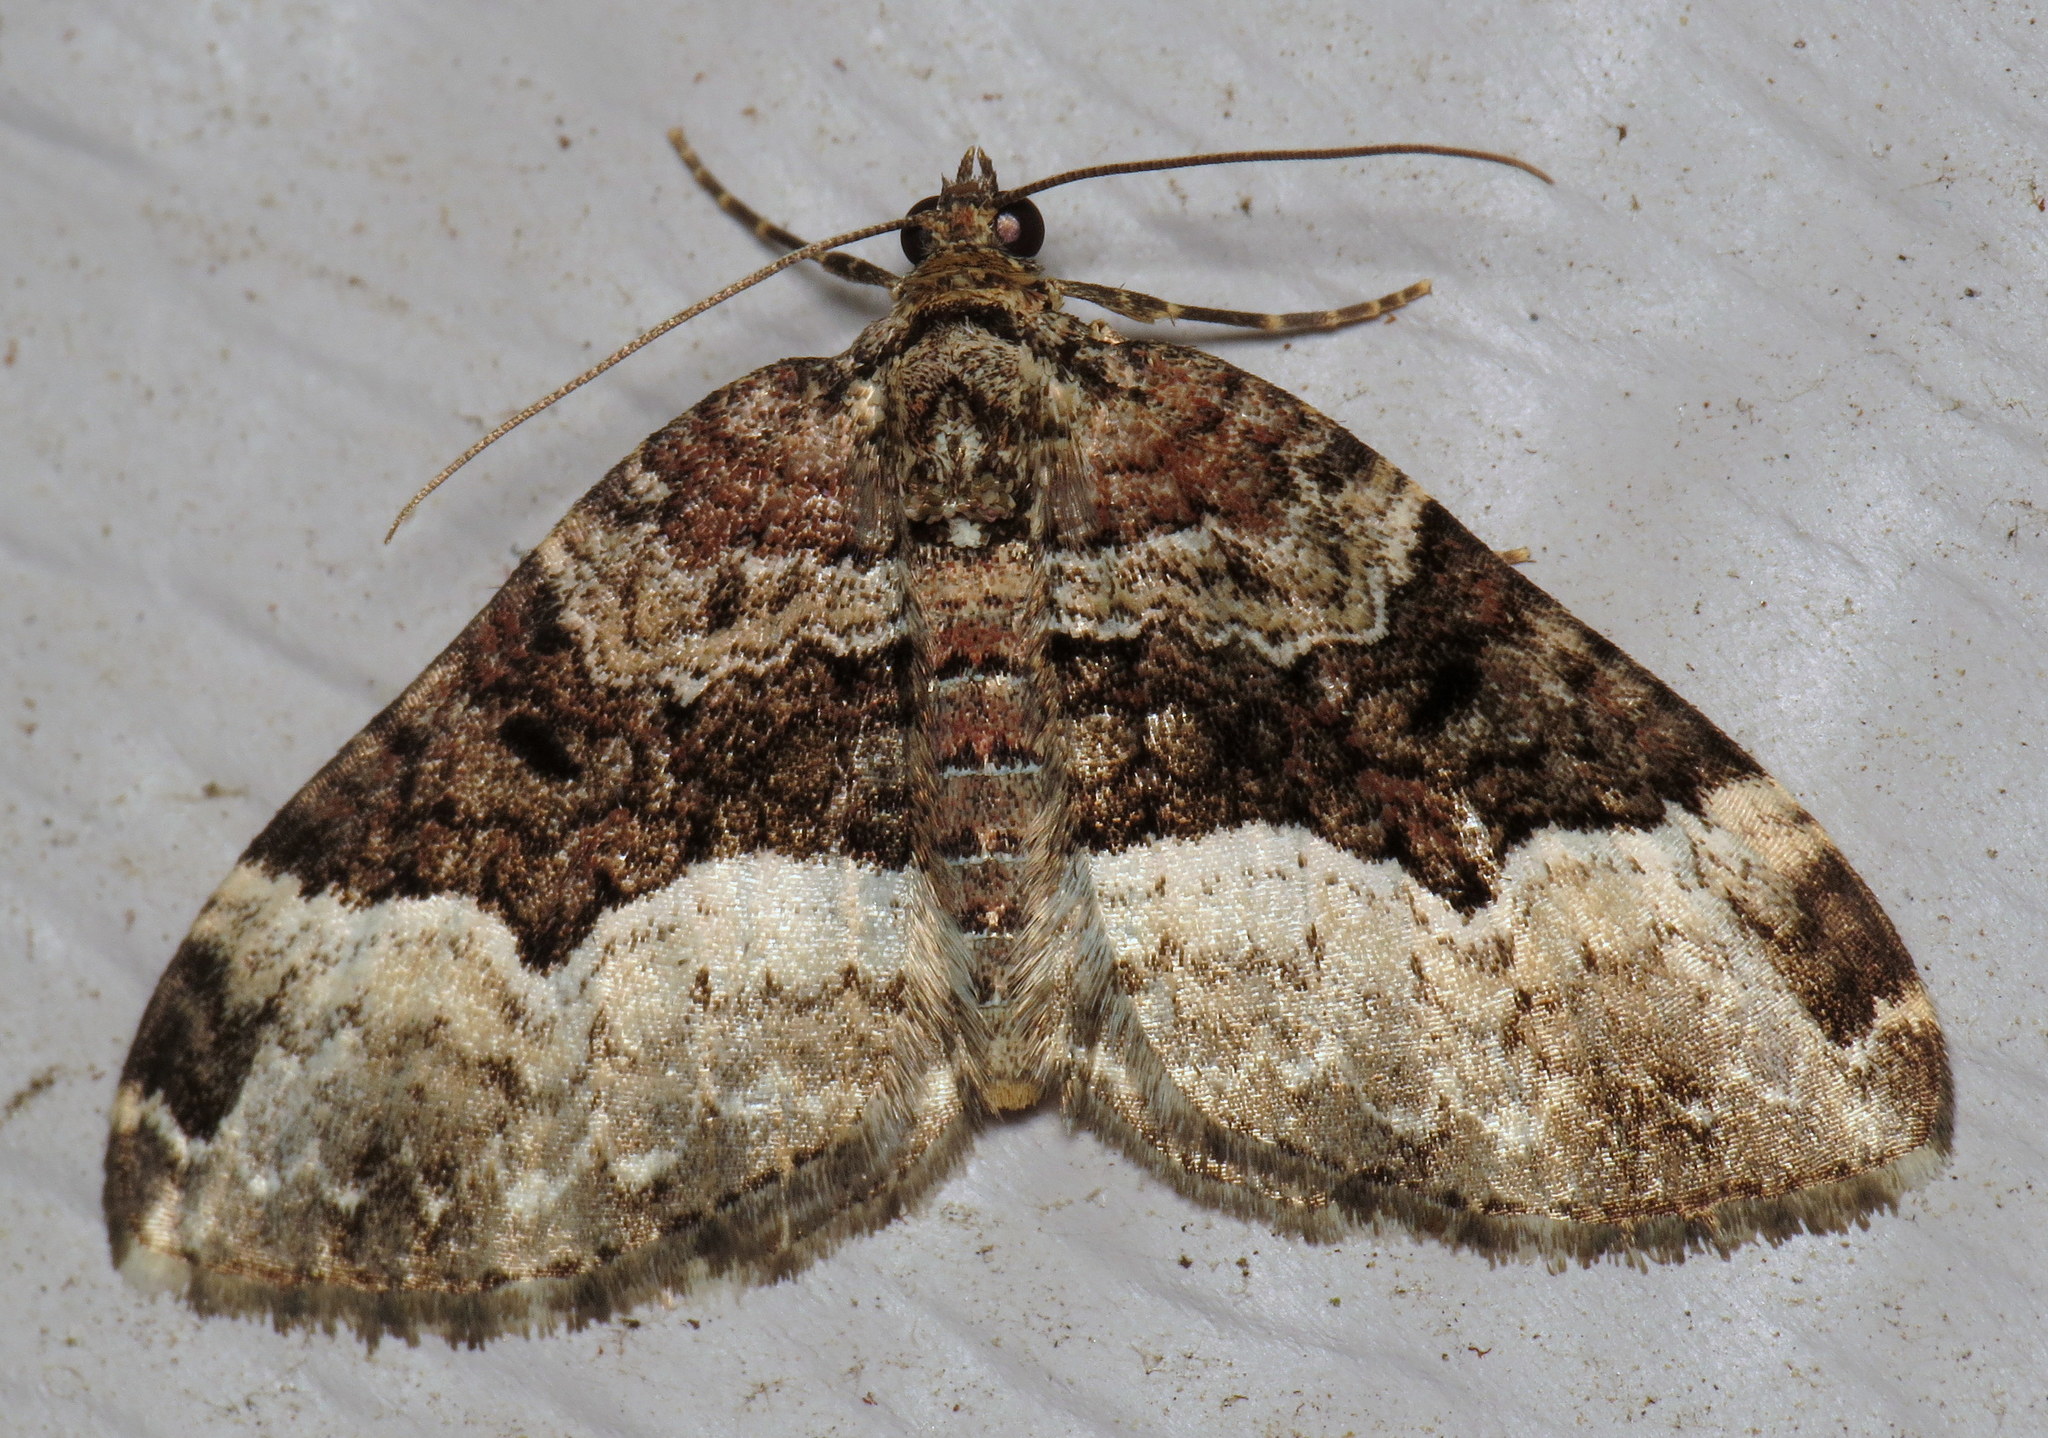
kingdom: Animalia
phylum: Arthropoda
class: Insecta
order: Lepidoptera
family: Geometridae
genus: Euphyia
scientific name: Euphyia intermediata
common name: Sharp-angled carpet
